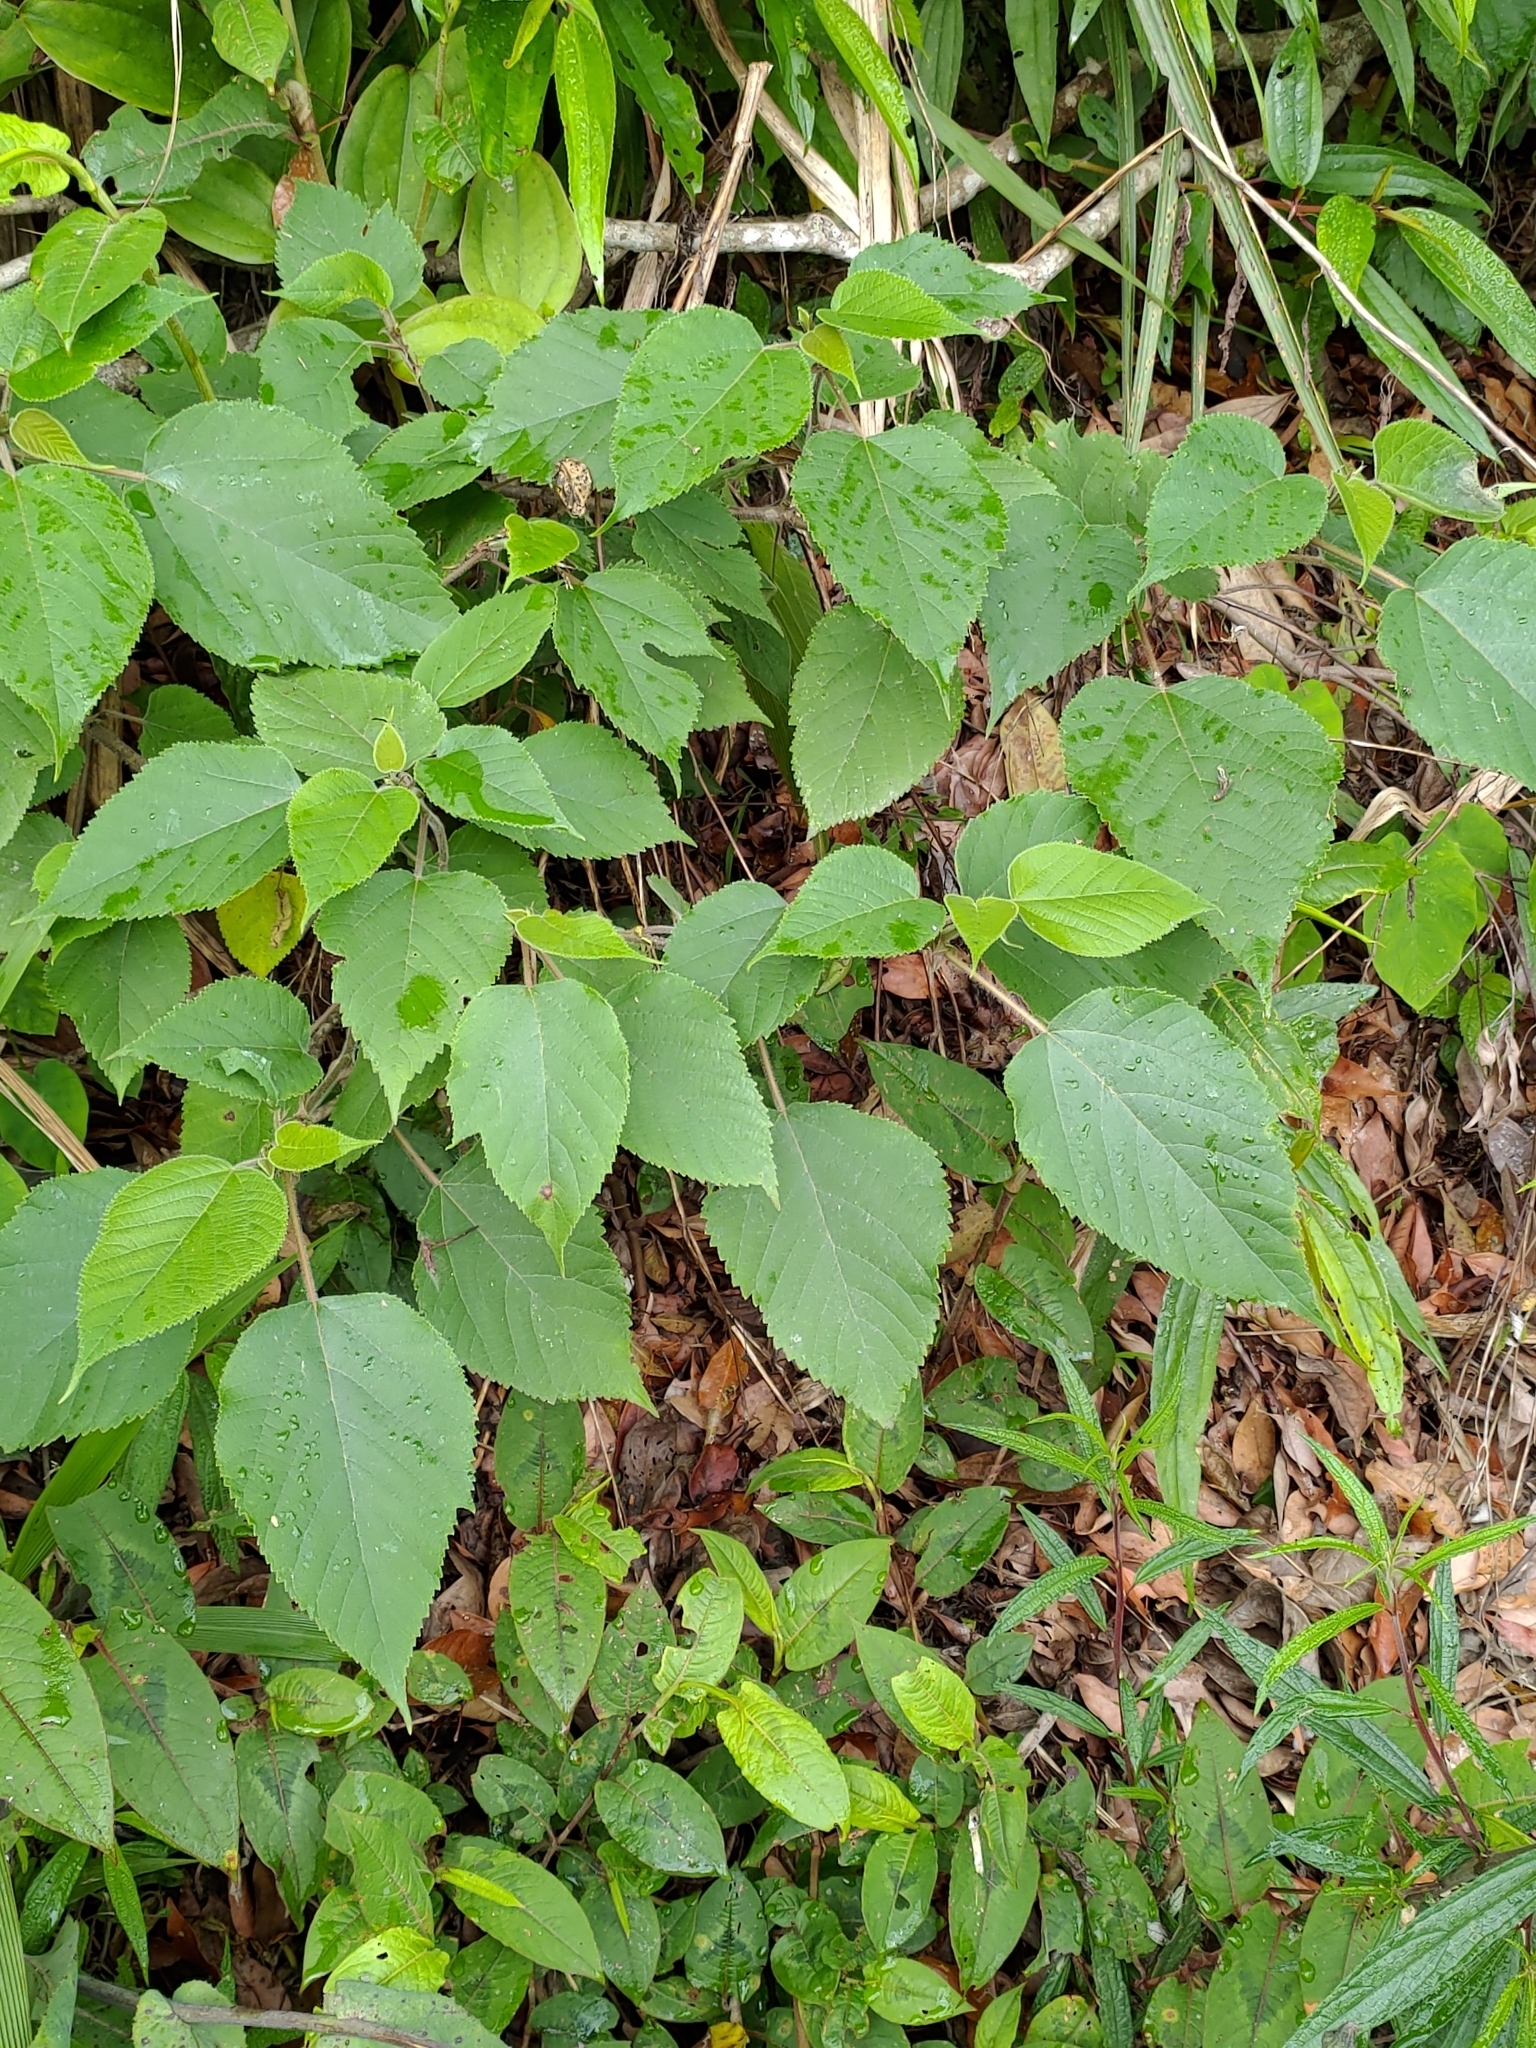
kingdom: Plantae
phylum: Tracheophyta
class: Magnoliopsida
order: Rosales
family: Moraceae
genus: Broussonetia
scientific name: Broussonetia papyrifera
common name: Paper mulberry
